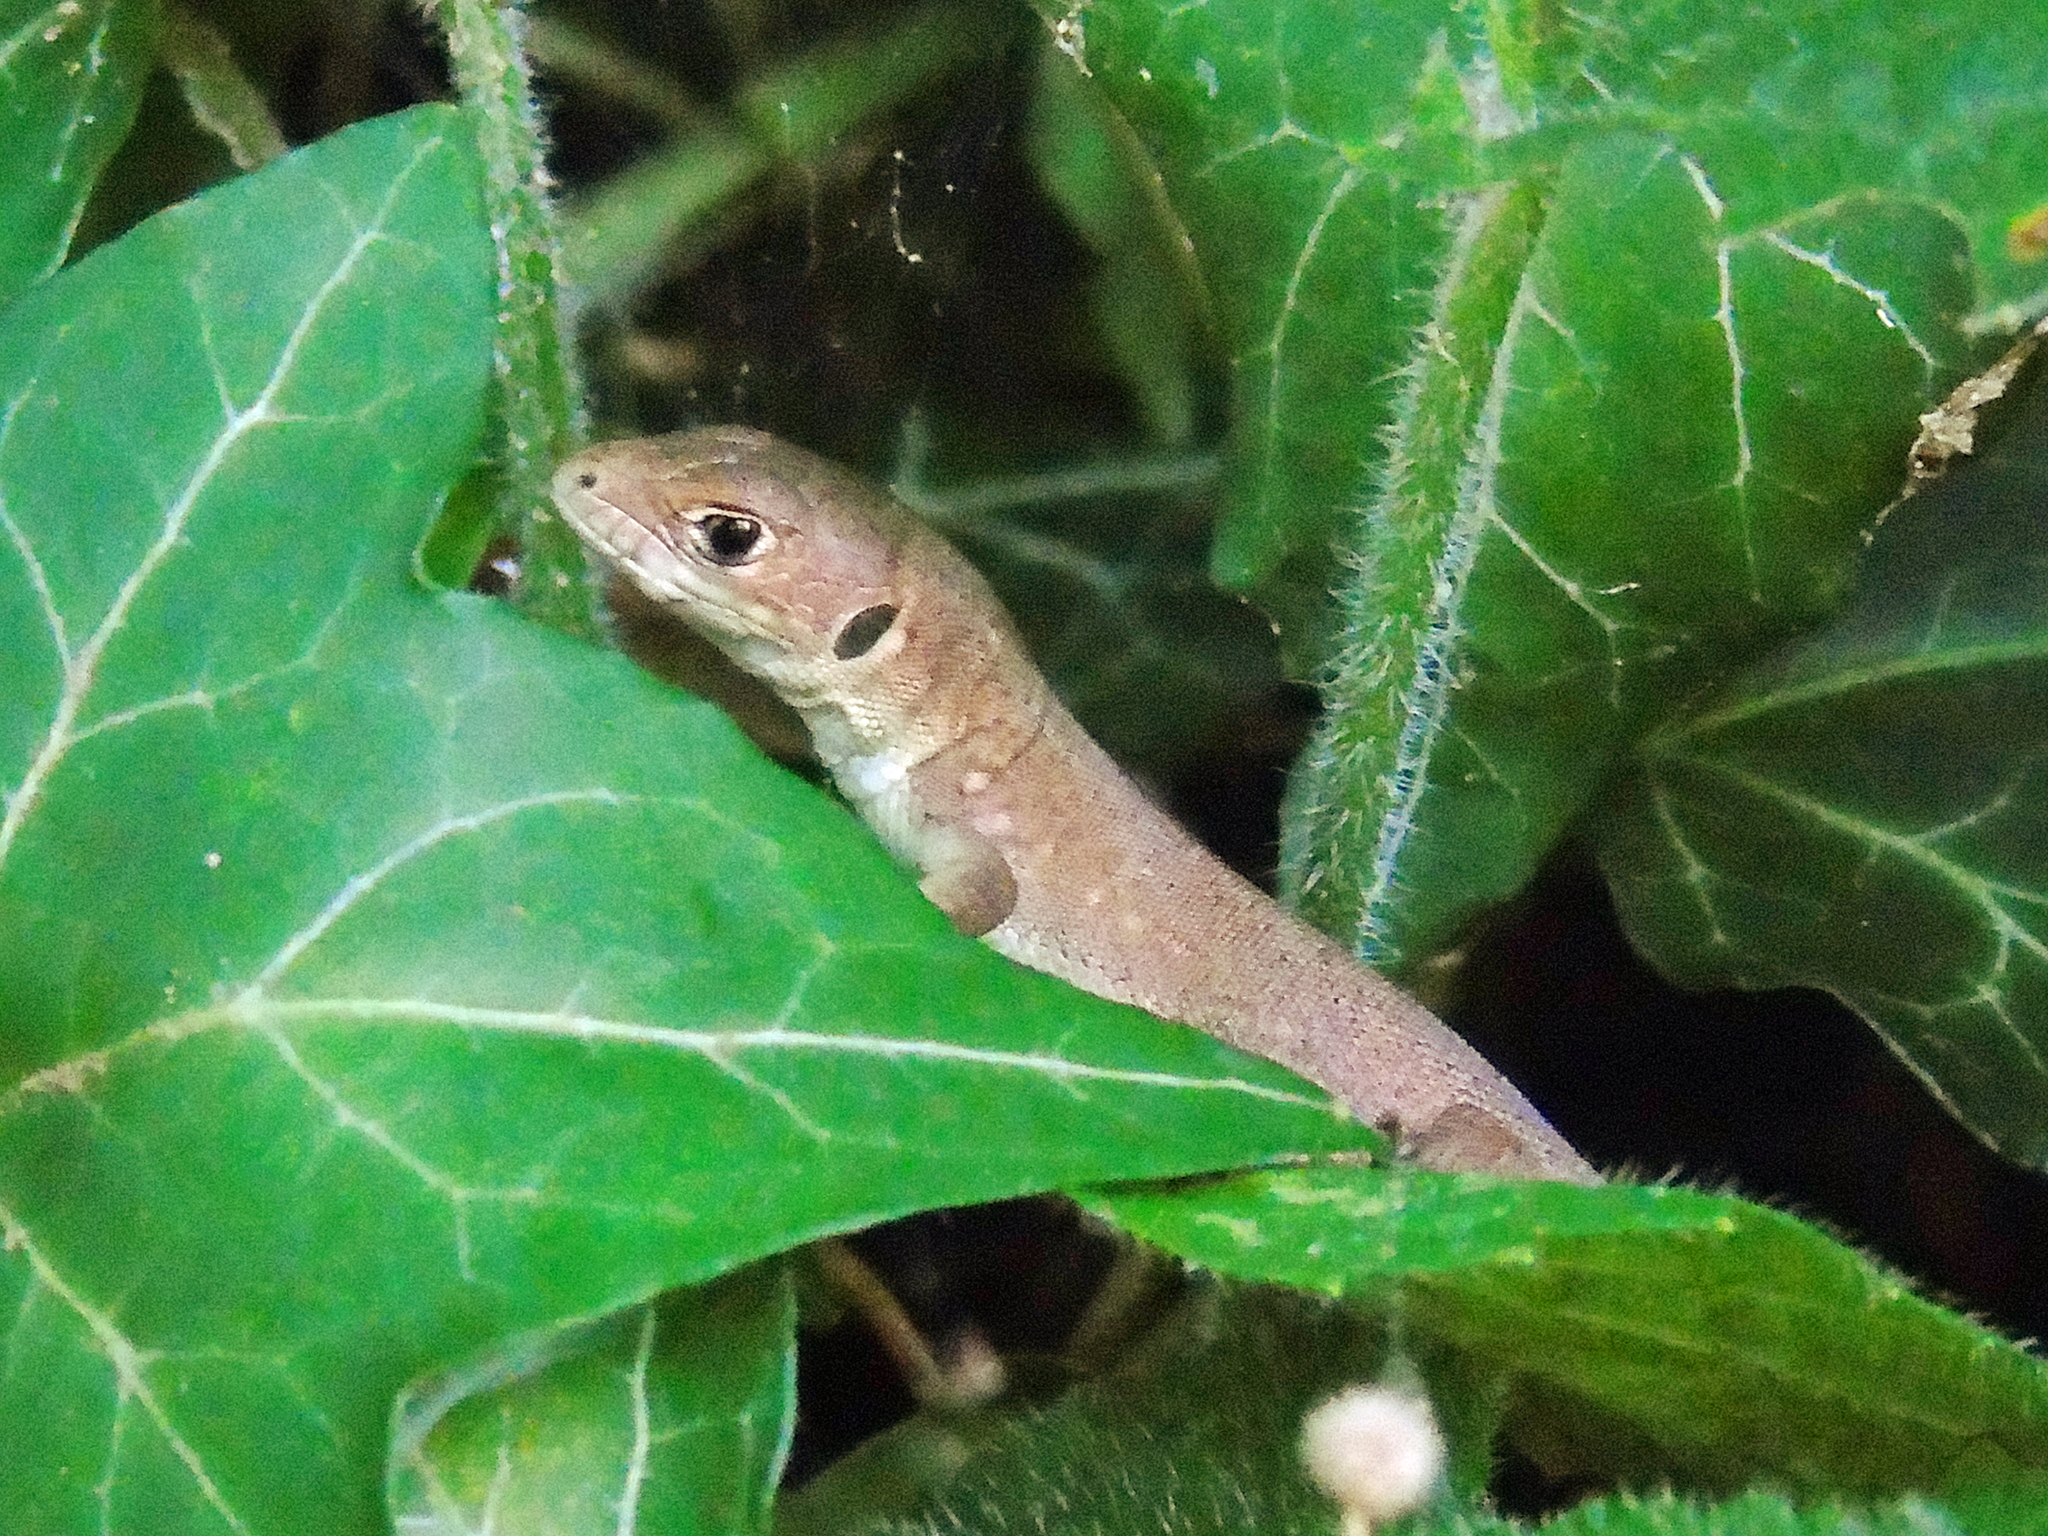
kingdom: Animalia
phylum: Chordata
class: Squamata
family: Lacertidae
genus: Lacerta
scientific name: Lacerta viridis
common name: European green lizard
